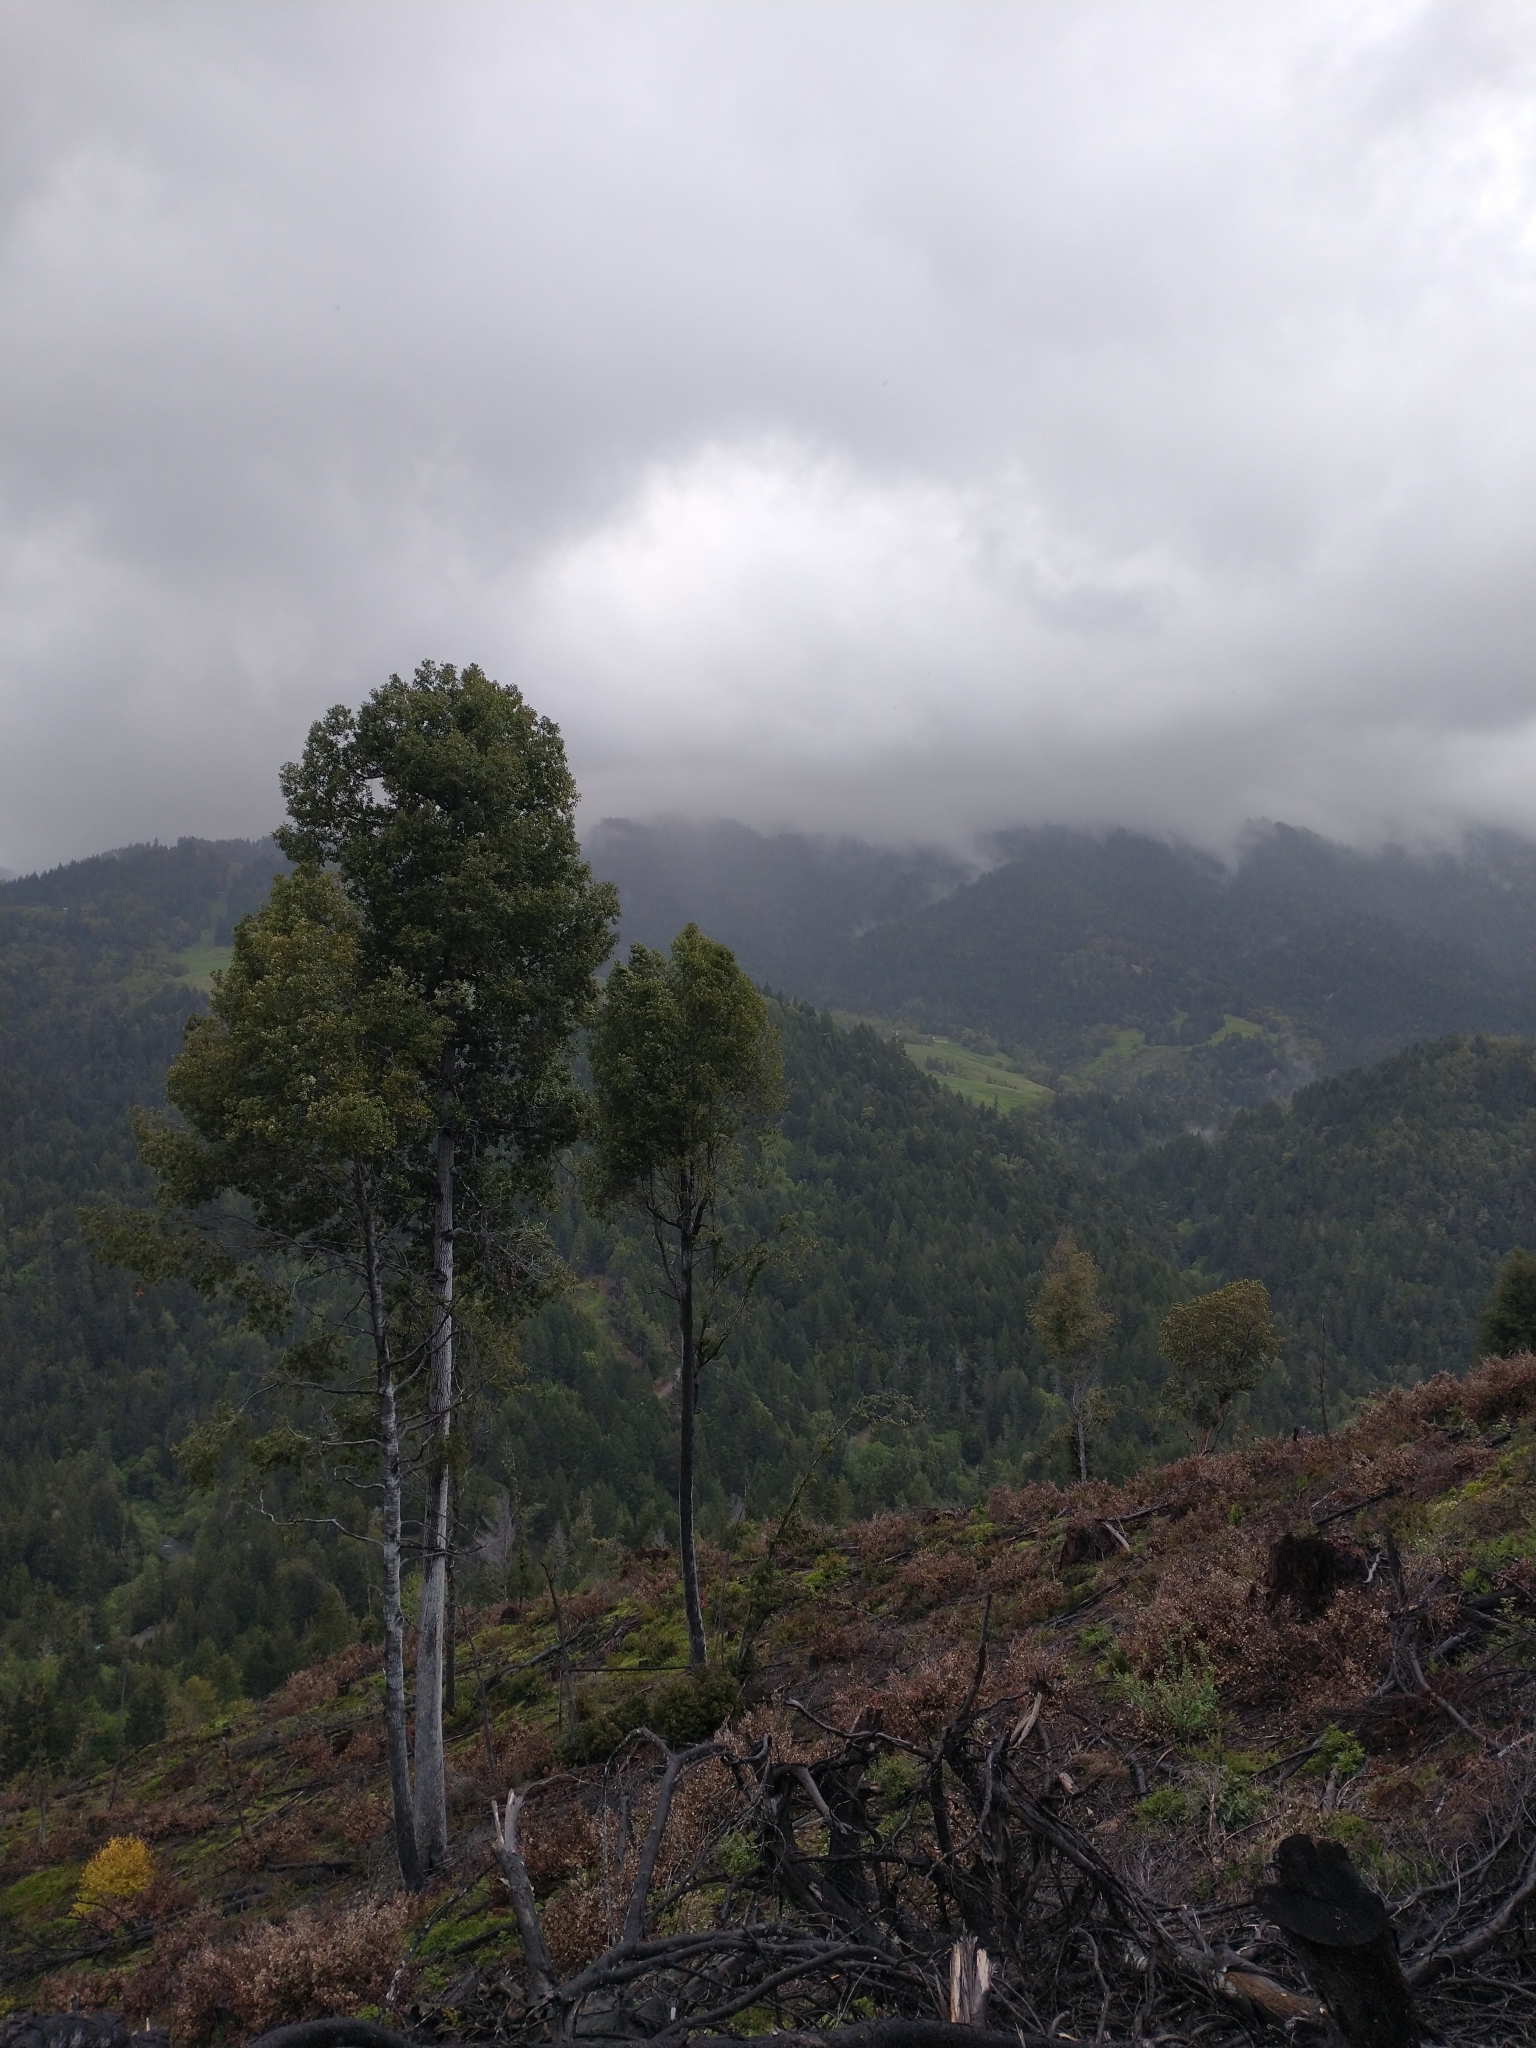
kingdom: Plantae
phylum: Tracheophyta
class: Magnoliopsida
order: Fagales
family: Fagaceae
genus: Notholithocarpus
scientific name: Notholithocarpus densiflorus
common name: Tan bark oak
